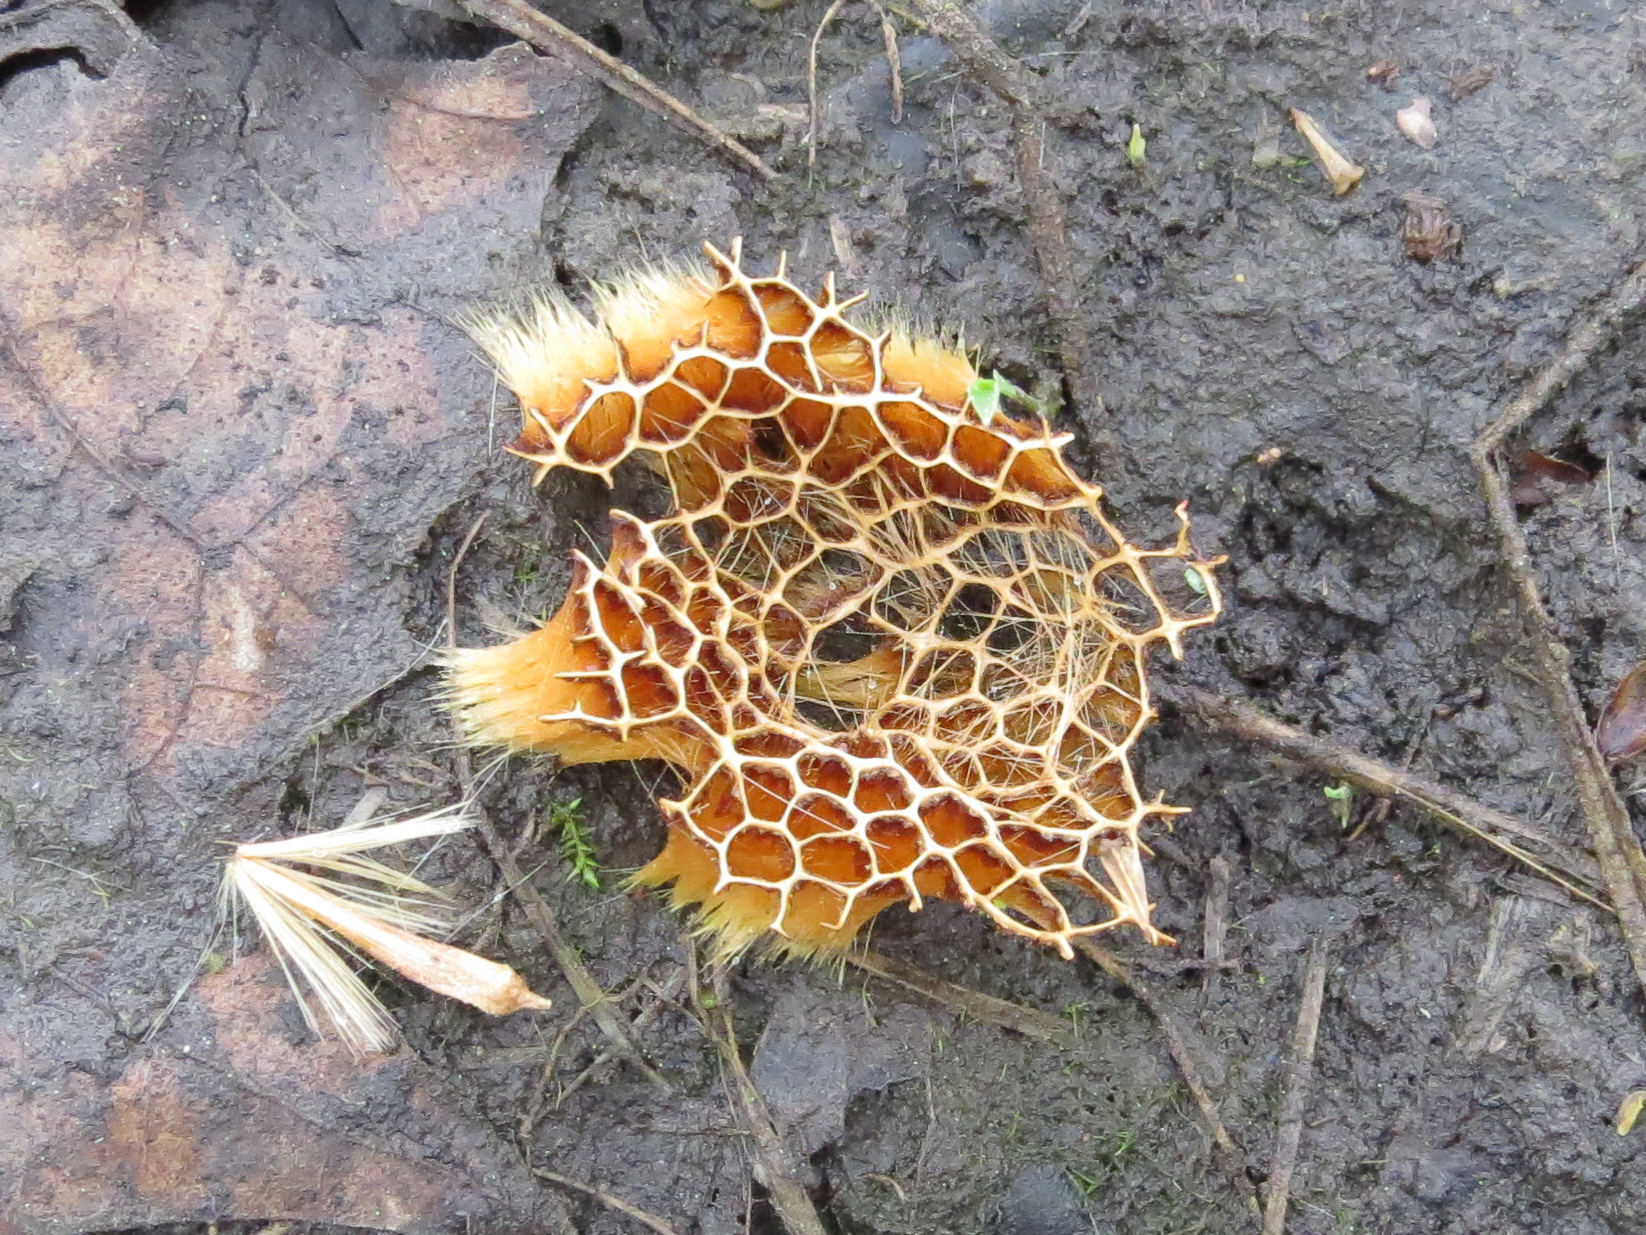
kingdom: Plantae
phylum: Tracheophyta
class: Magnoliopsida
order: Proteales
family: Platanaceae
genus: Platanus
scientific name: Platanus
